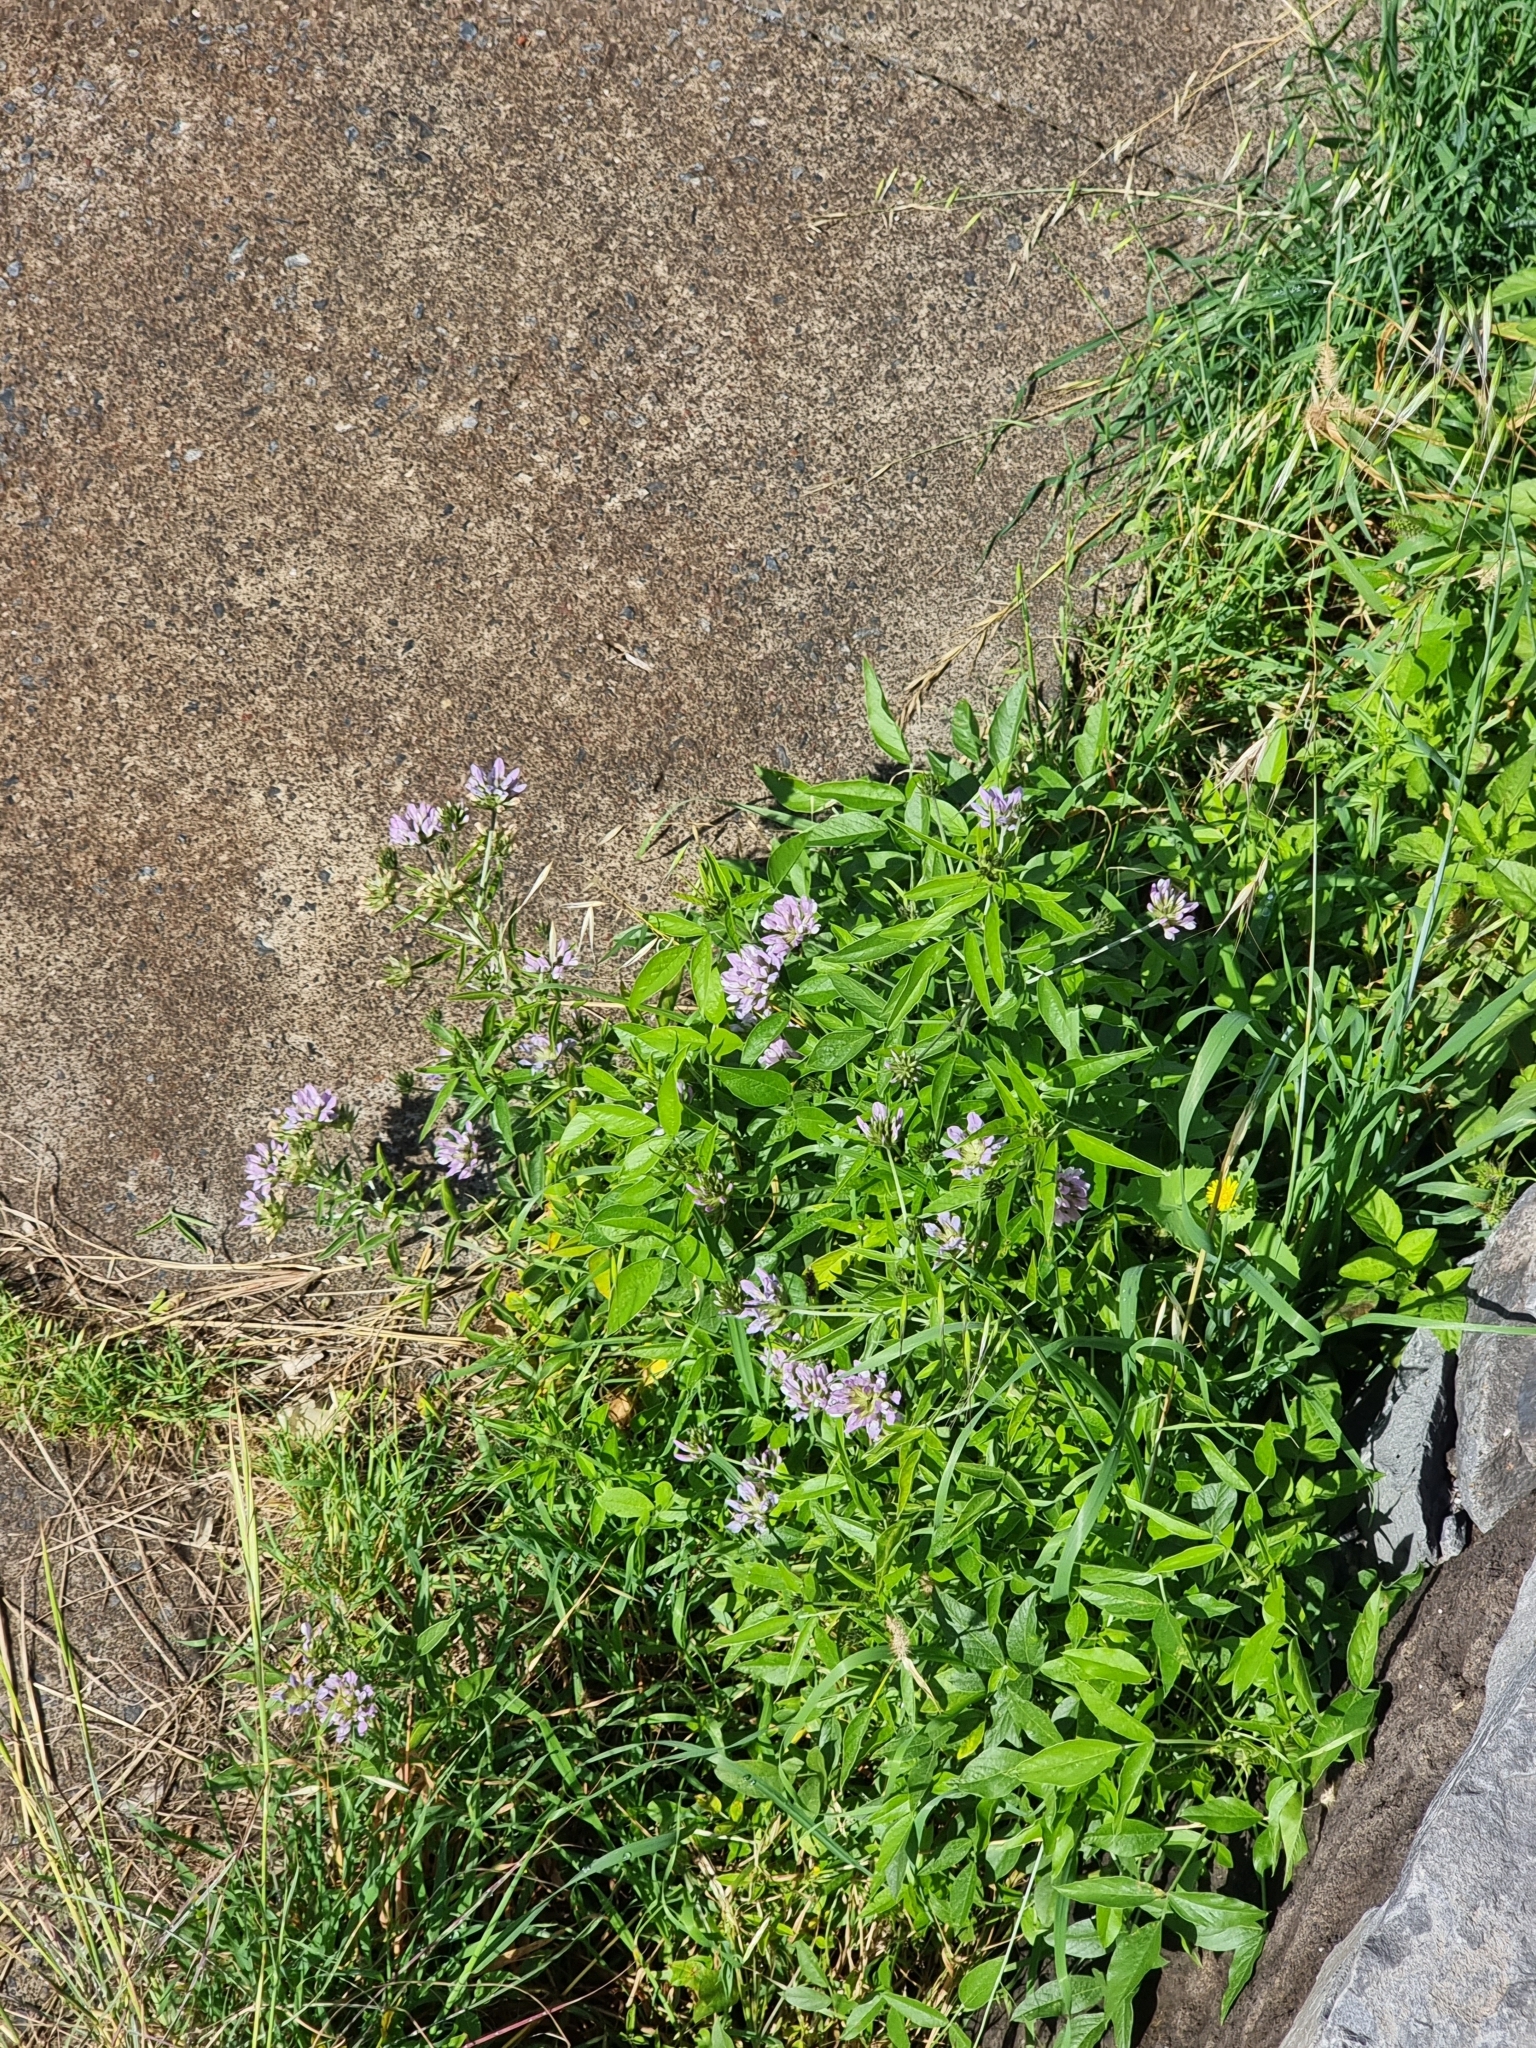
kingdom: Plantae
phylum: Tracheophyta
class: Magnoliopsida
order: Fabales
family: Fabaceae
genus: Bituminaria
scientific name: Bituminaria bituminosa
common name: Arabian pea
